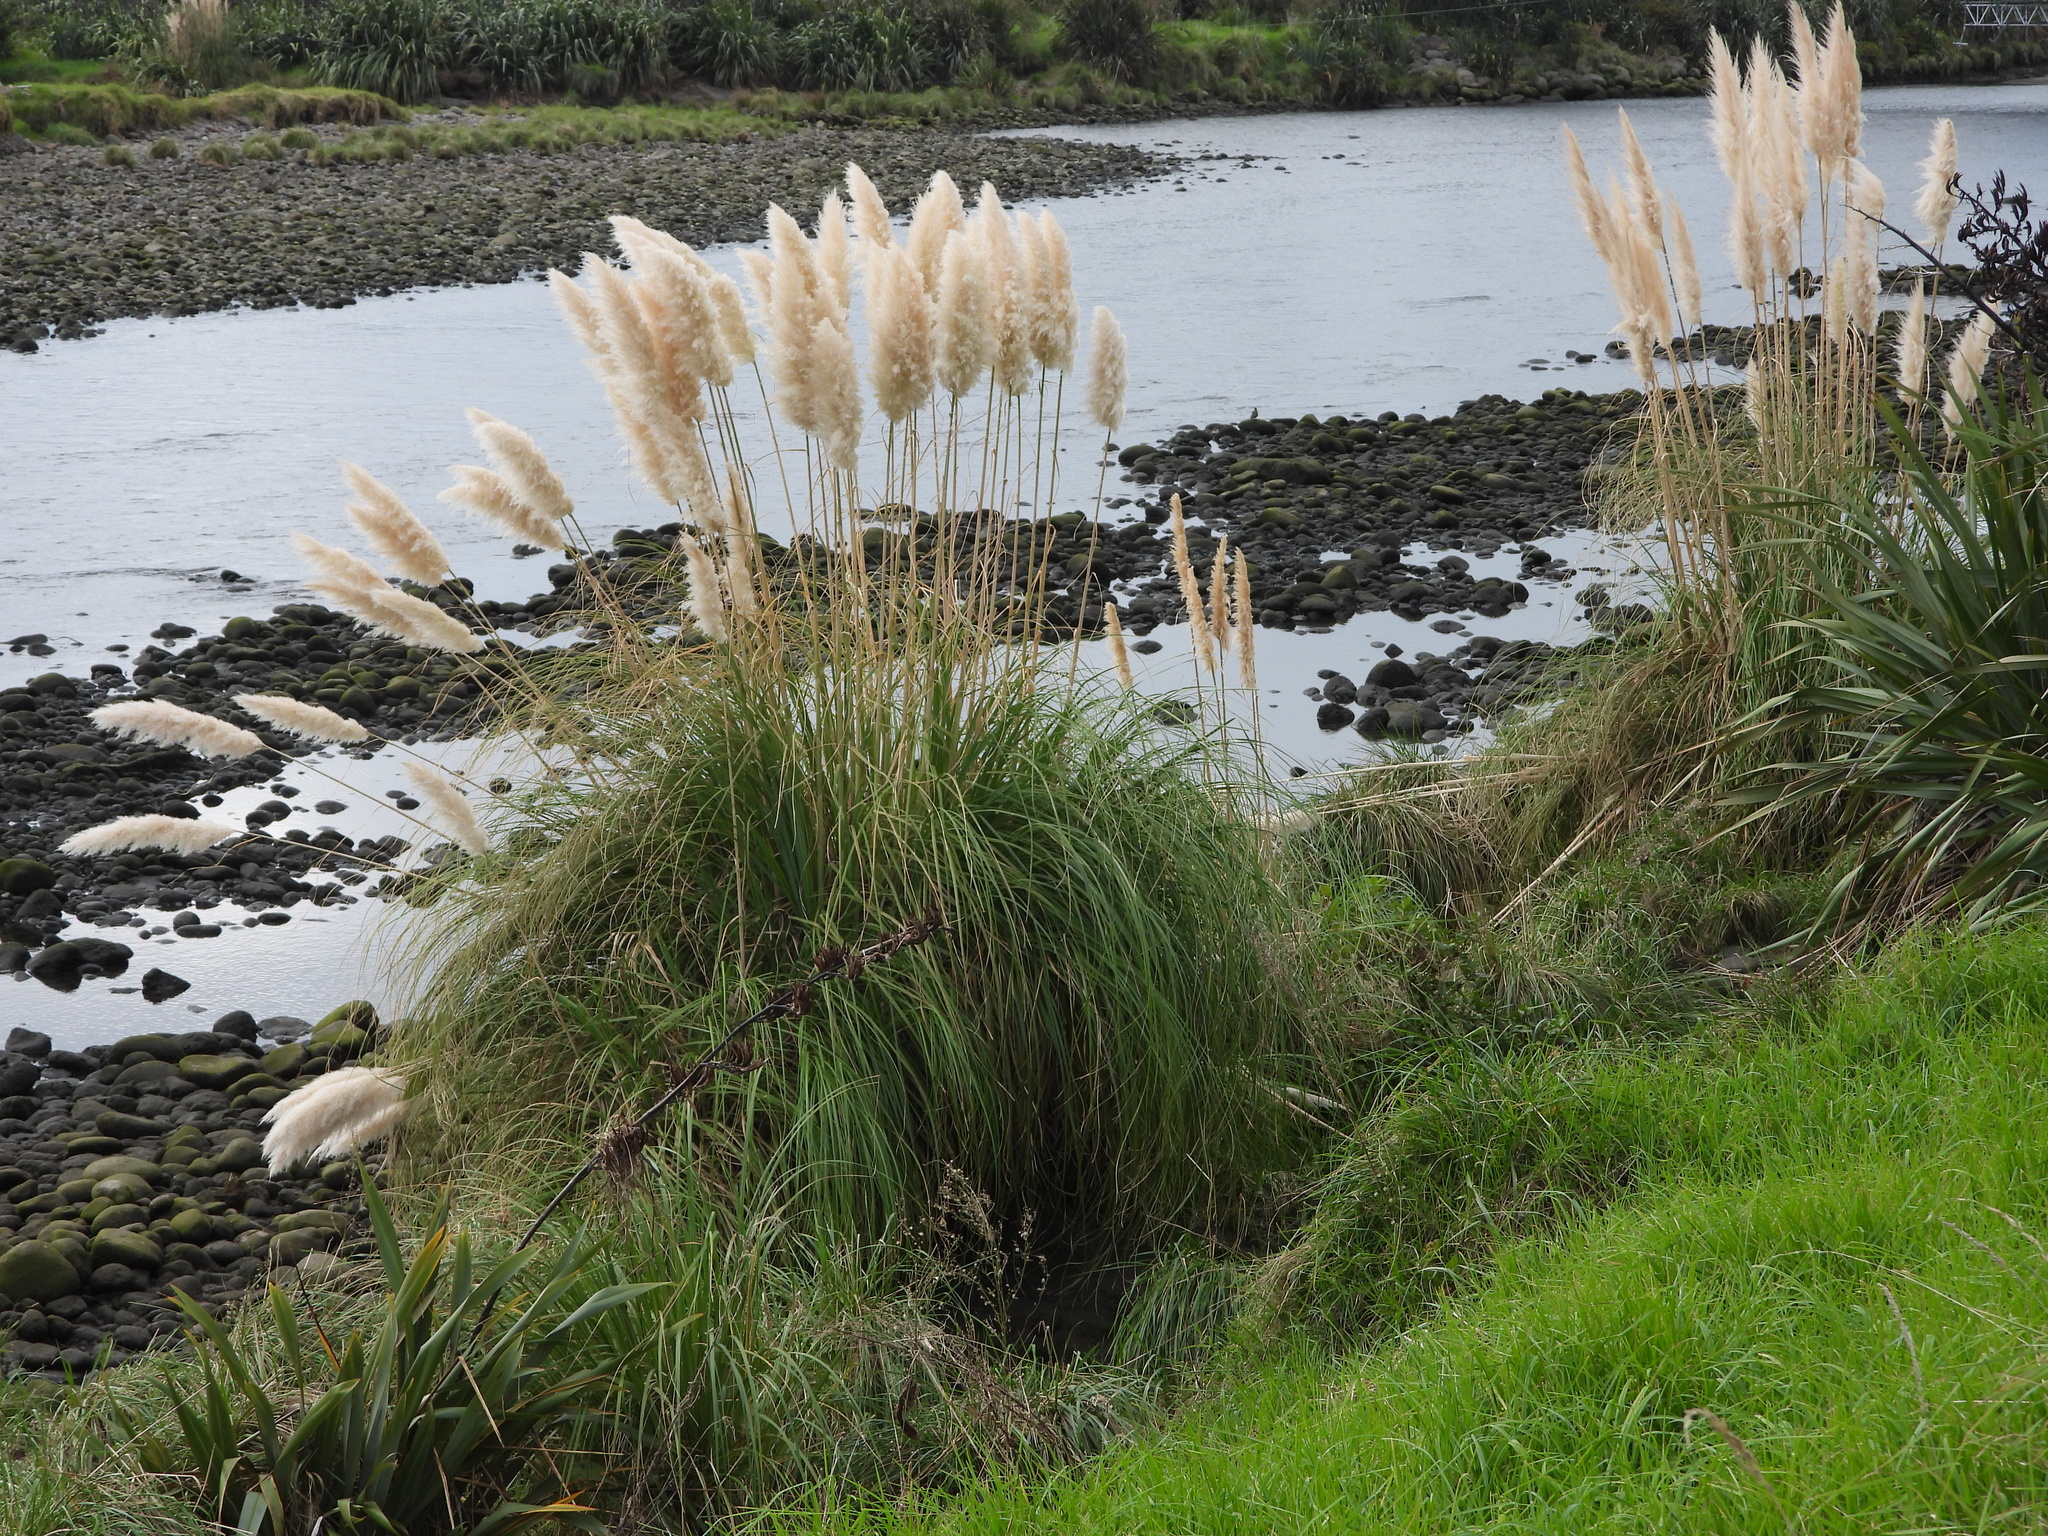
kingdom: Plantae
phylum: Tracheophyta
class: Liliopsida
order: Poales
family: Poaceae
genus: Cortaderia
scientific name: Cortaderia selloana
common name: Uruguayan pampas grass
